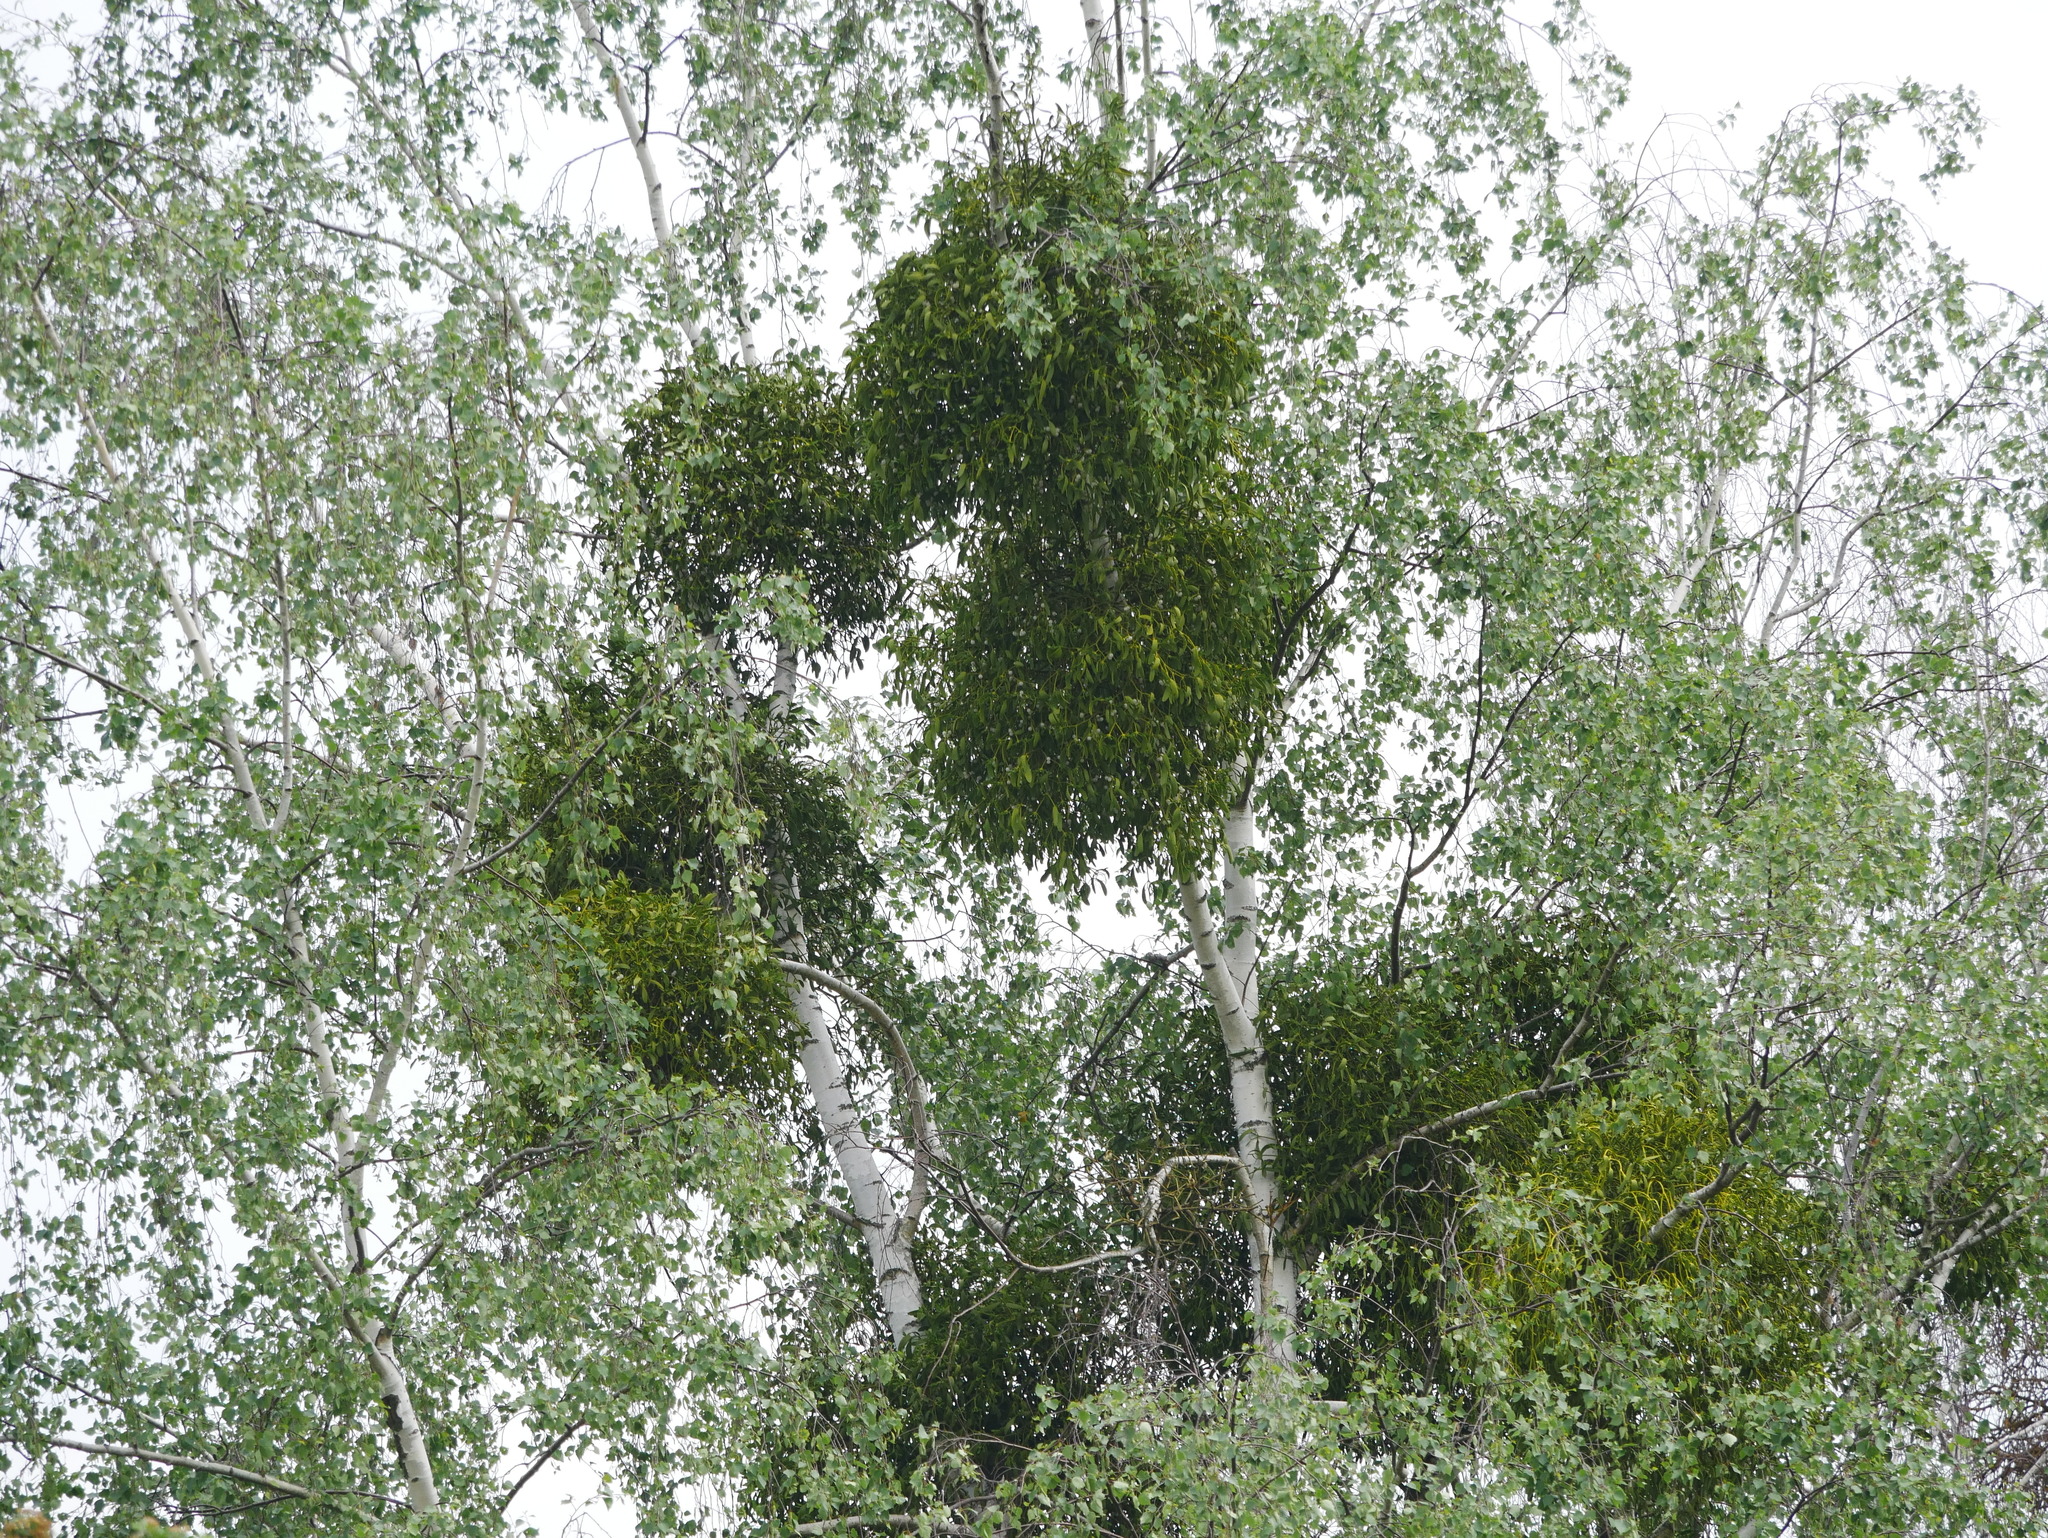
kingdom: Plantae
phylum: Tracheophyta
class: Magnoliopsida
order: Santalales
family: Viscaceae
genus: Viscum
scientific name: Viscum album
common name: Mistletoe
